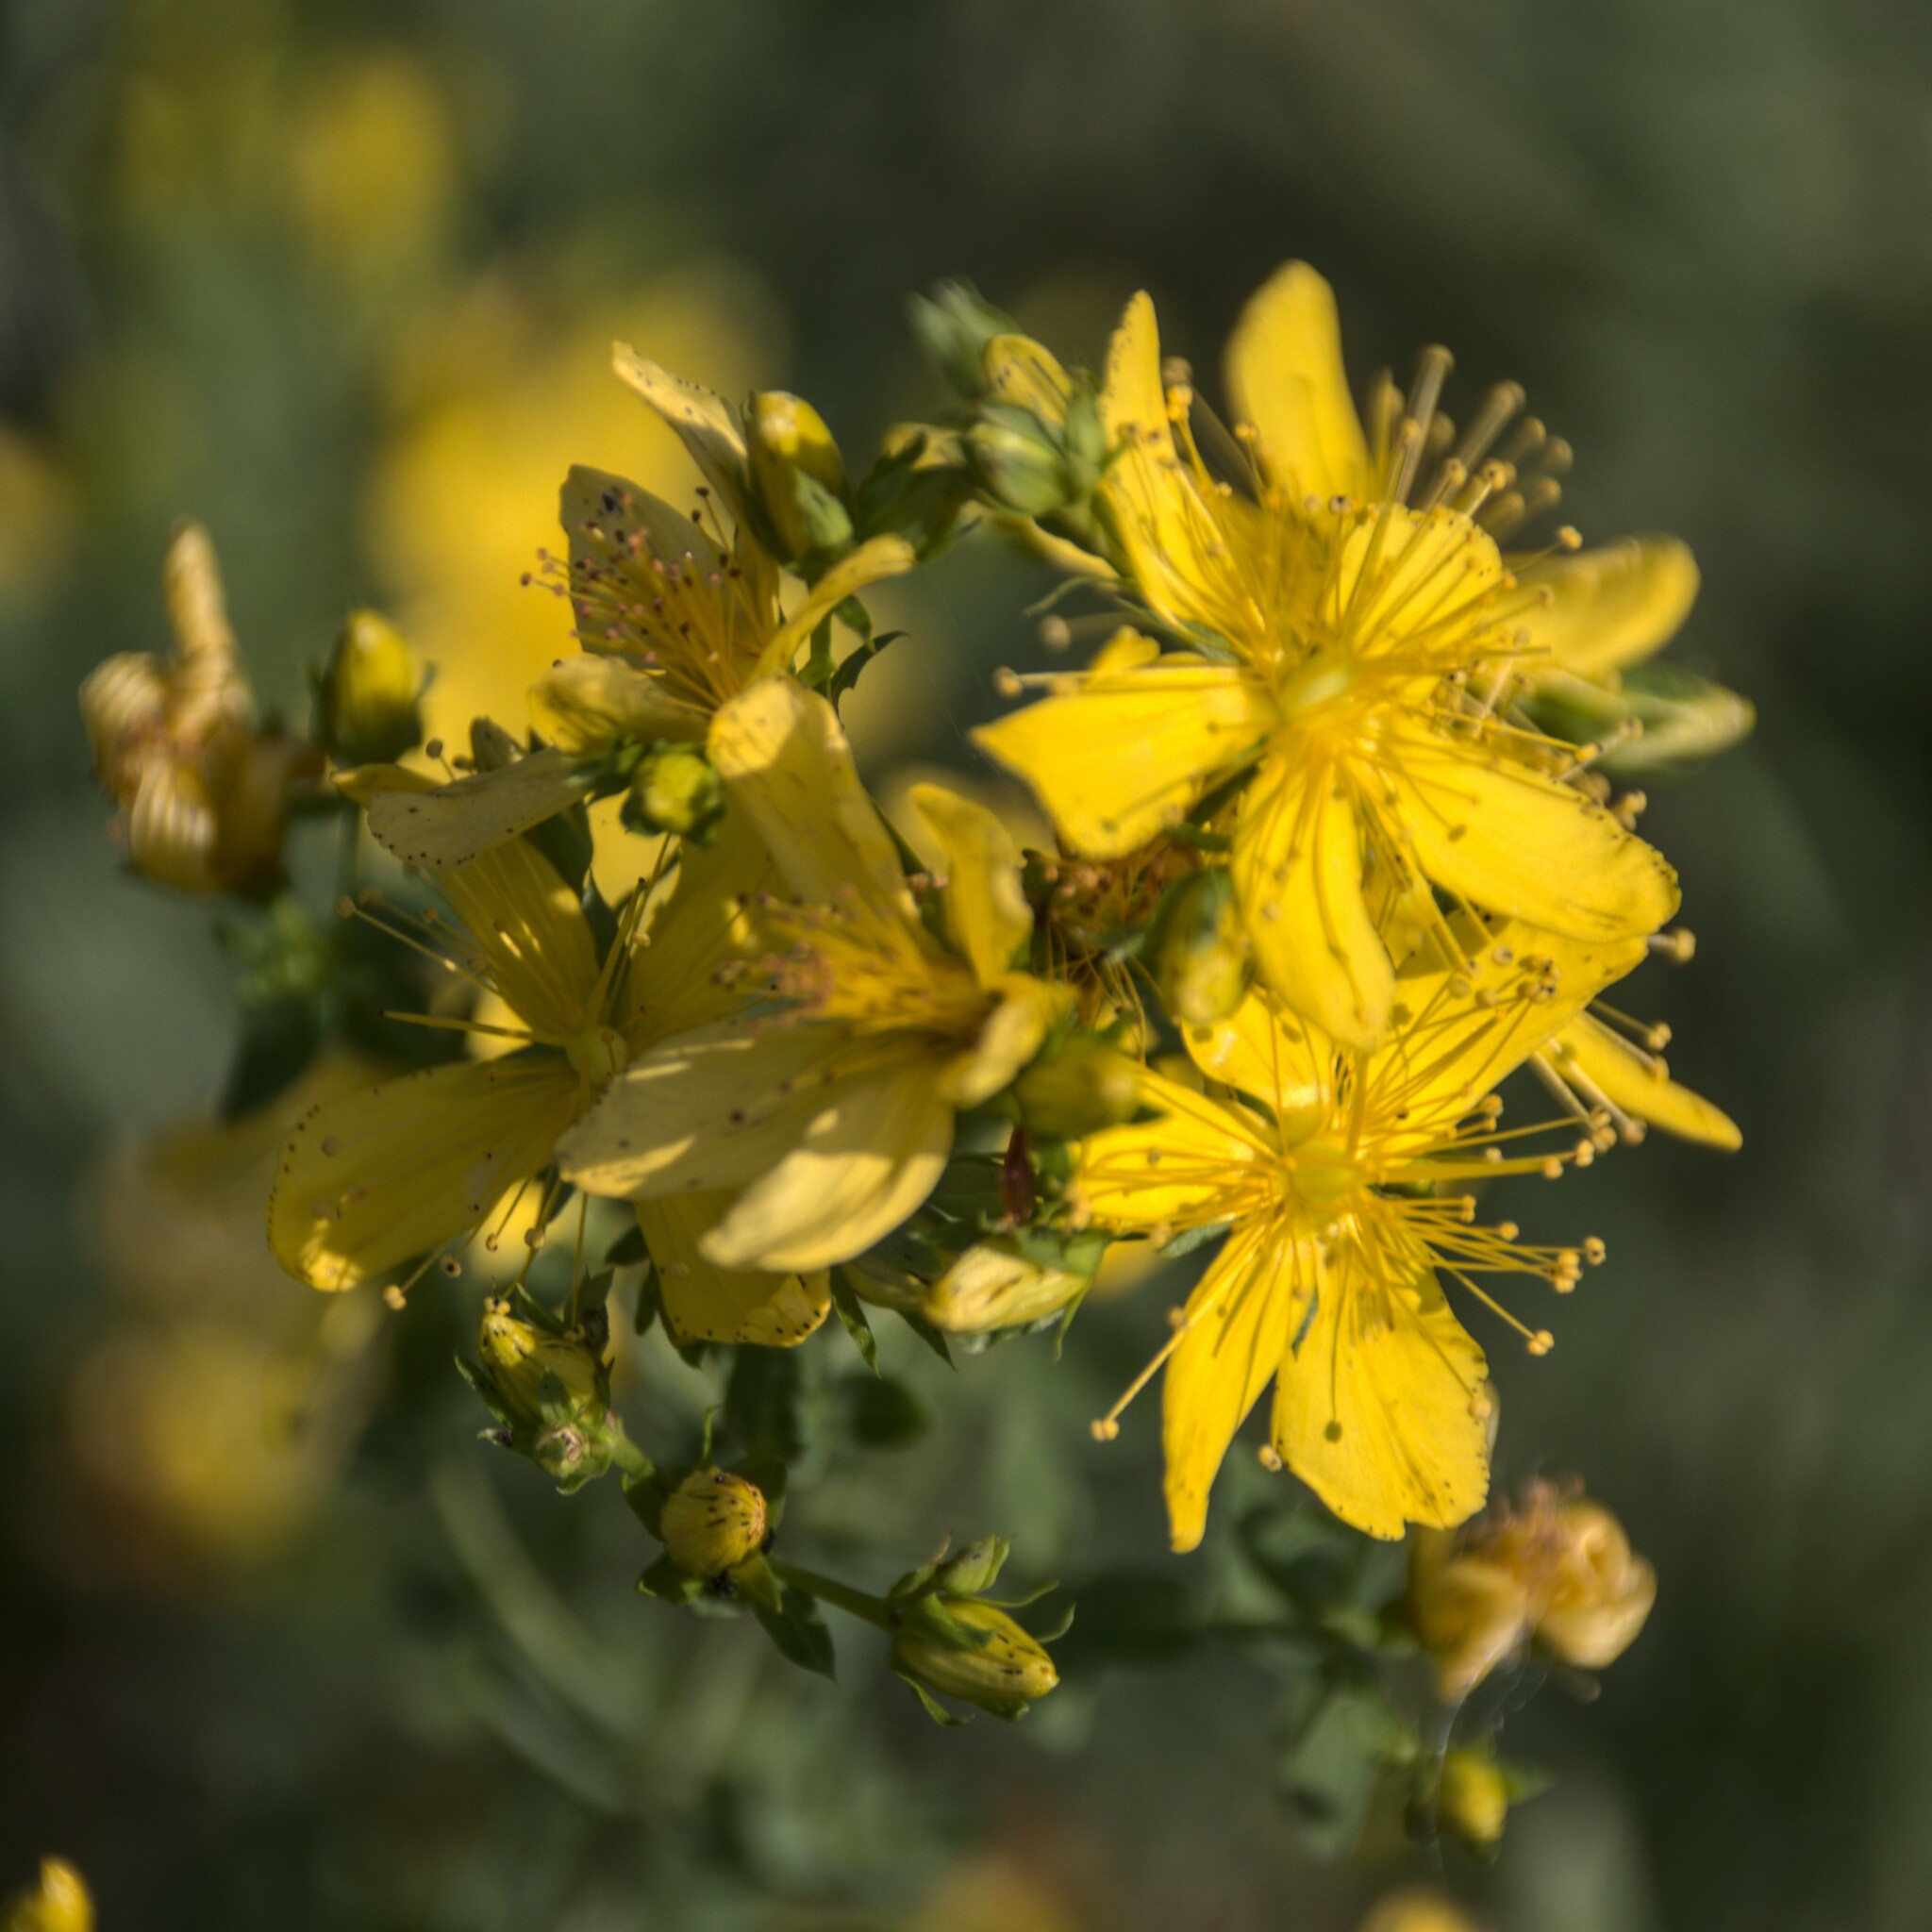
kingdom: Plantae
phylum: Tracheophyta
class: Magnoliopsida
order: Malpighiales
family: Hypericaceae
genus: Hypericum
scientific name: Hypericum perforatum
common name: Common st. johnswort
